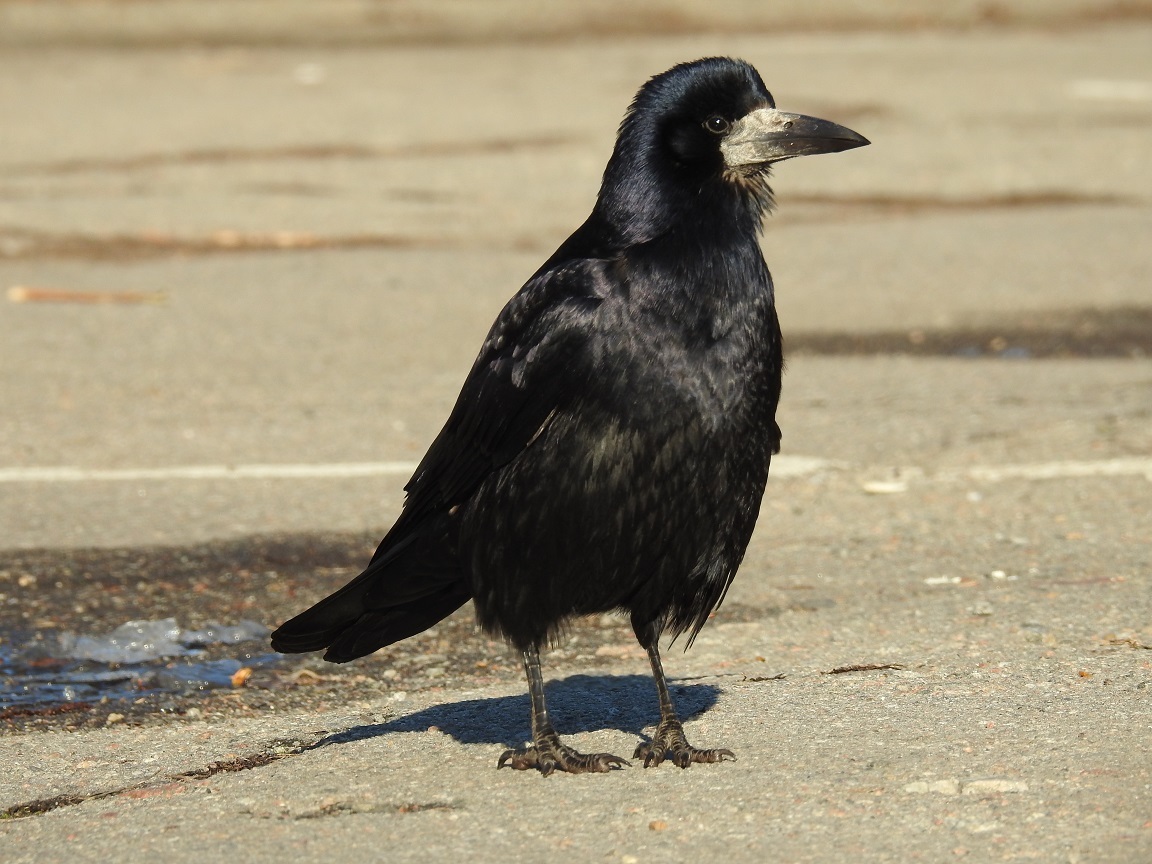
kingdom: Animalia
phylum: Chordata
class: Aves
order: Passeriformes
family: Corvidae
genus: Corvus
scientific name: Corvus frugilegus
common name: Rook
